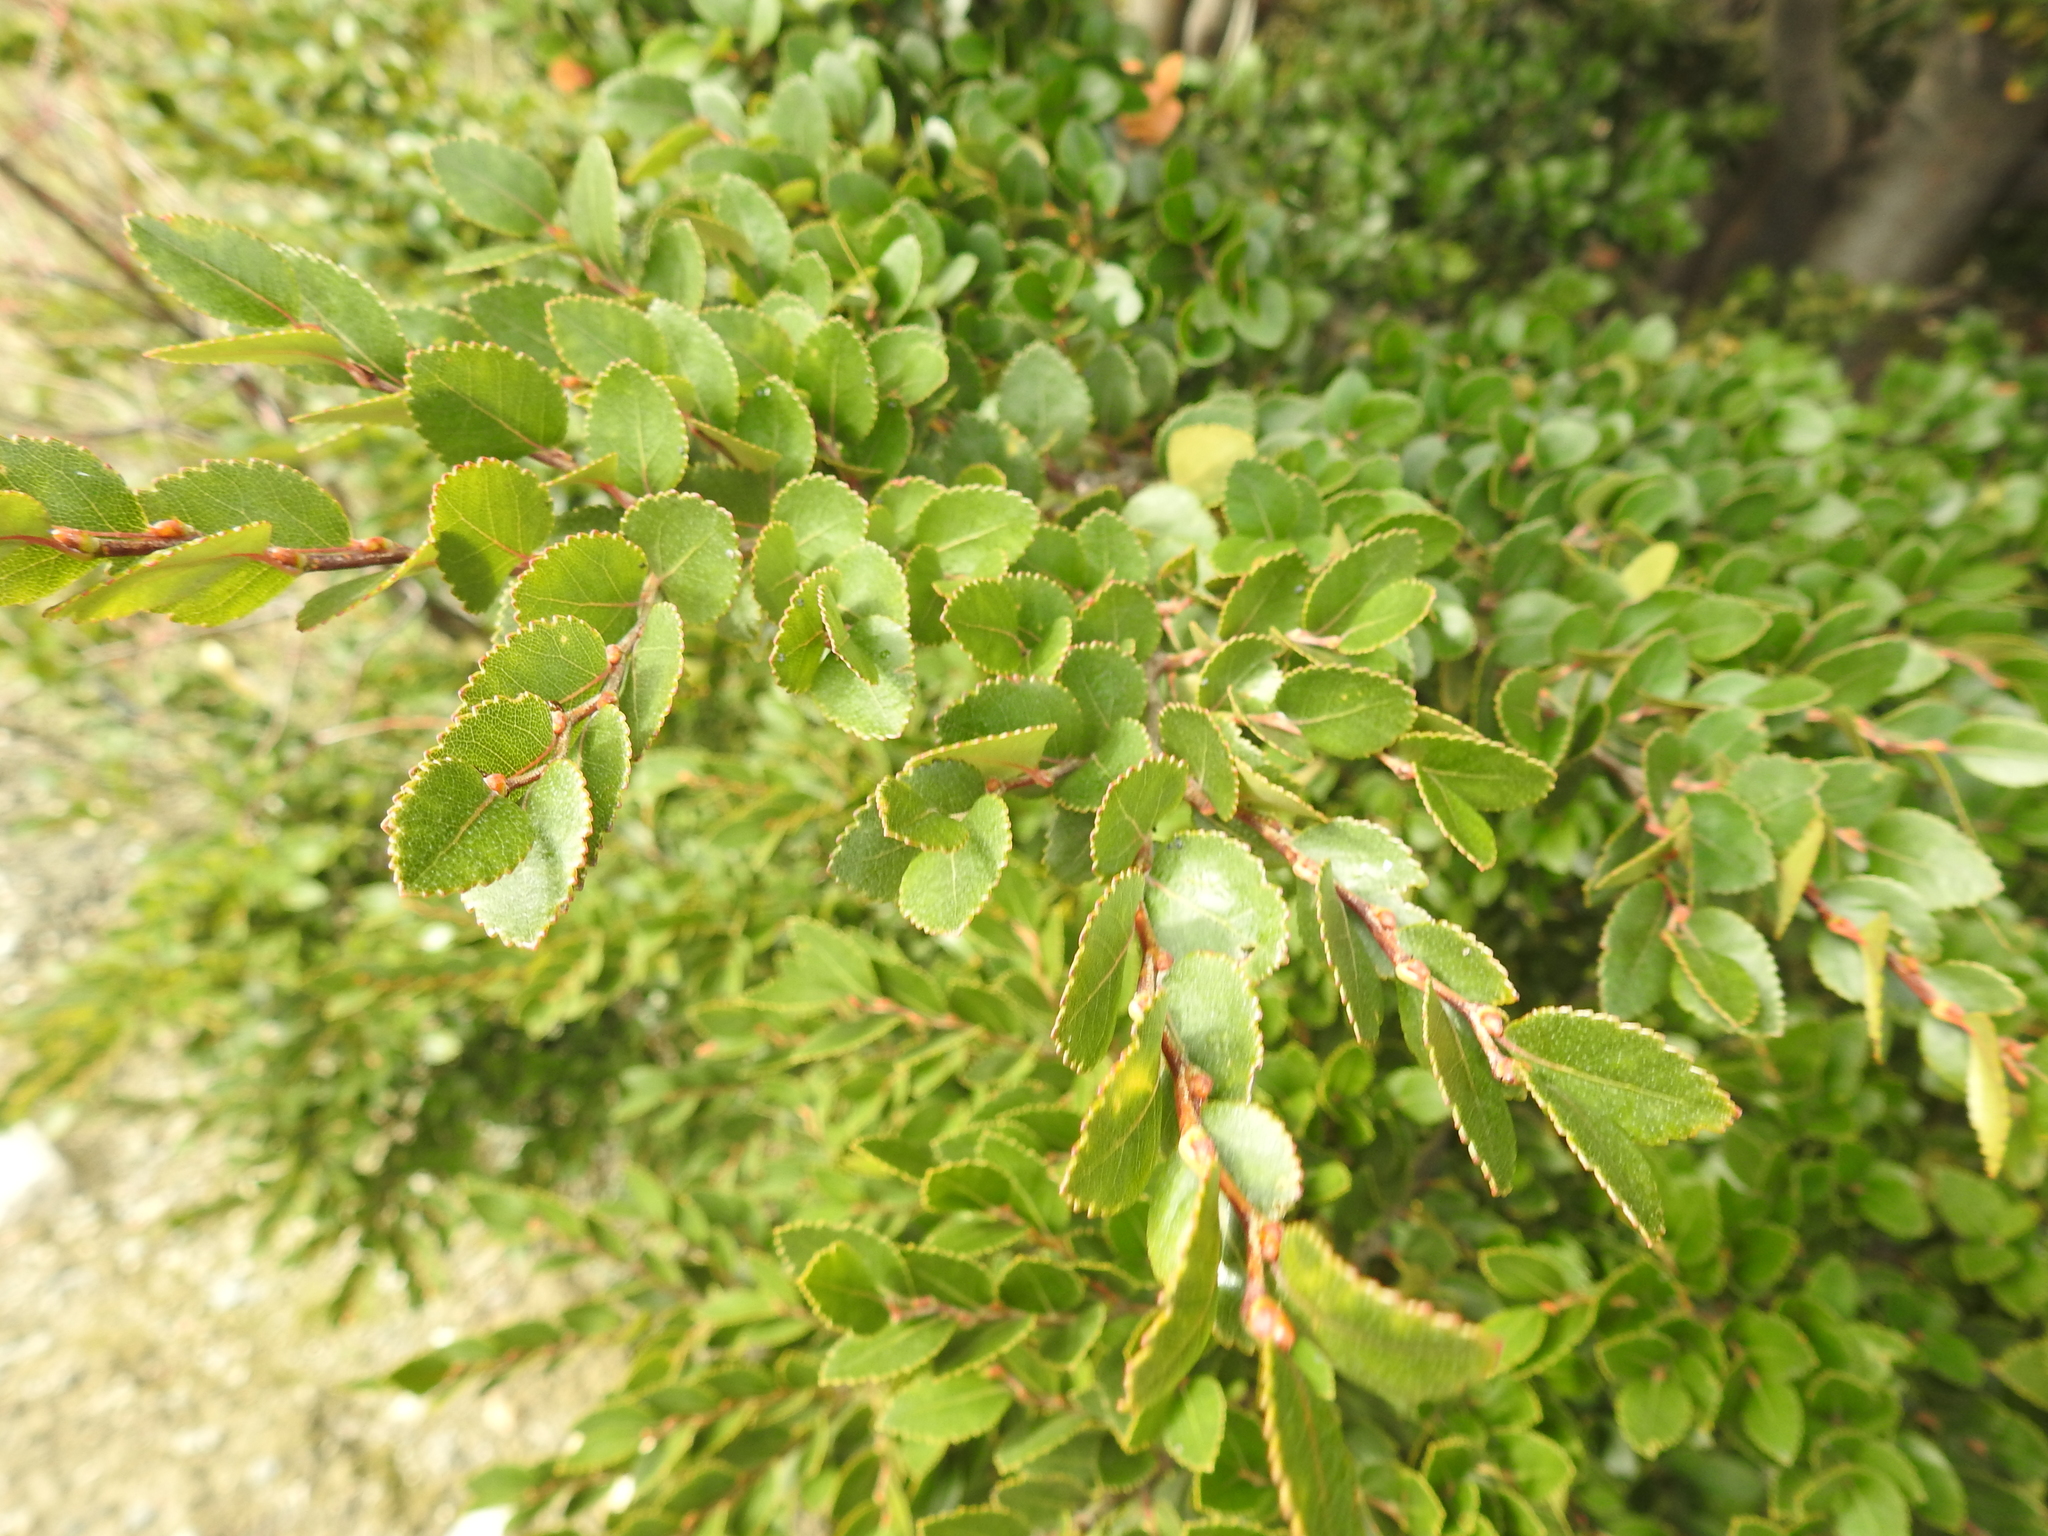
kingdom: Plantae
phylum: Tracheophyta
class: Magnoliopsida
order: Fagales
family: Nothofagaceae
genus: Nothofagus
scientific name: Nothofagus betuloides
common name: Magellan's beech
